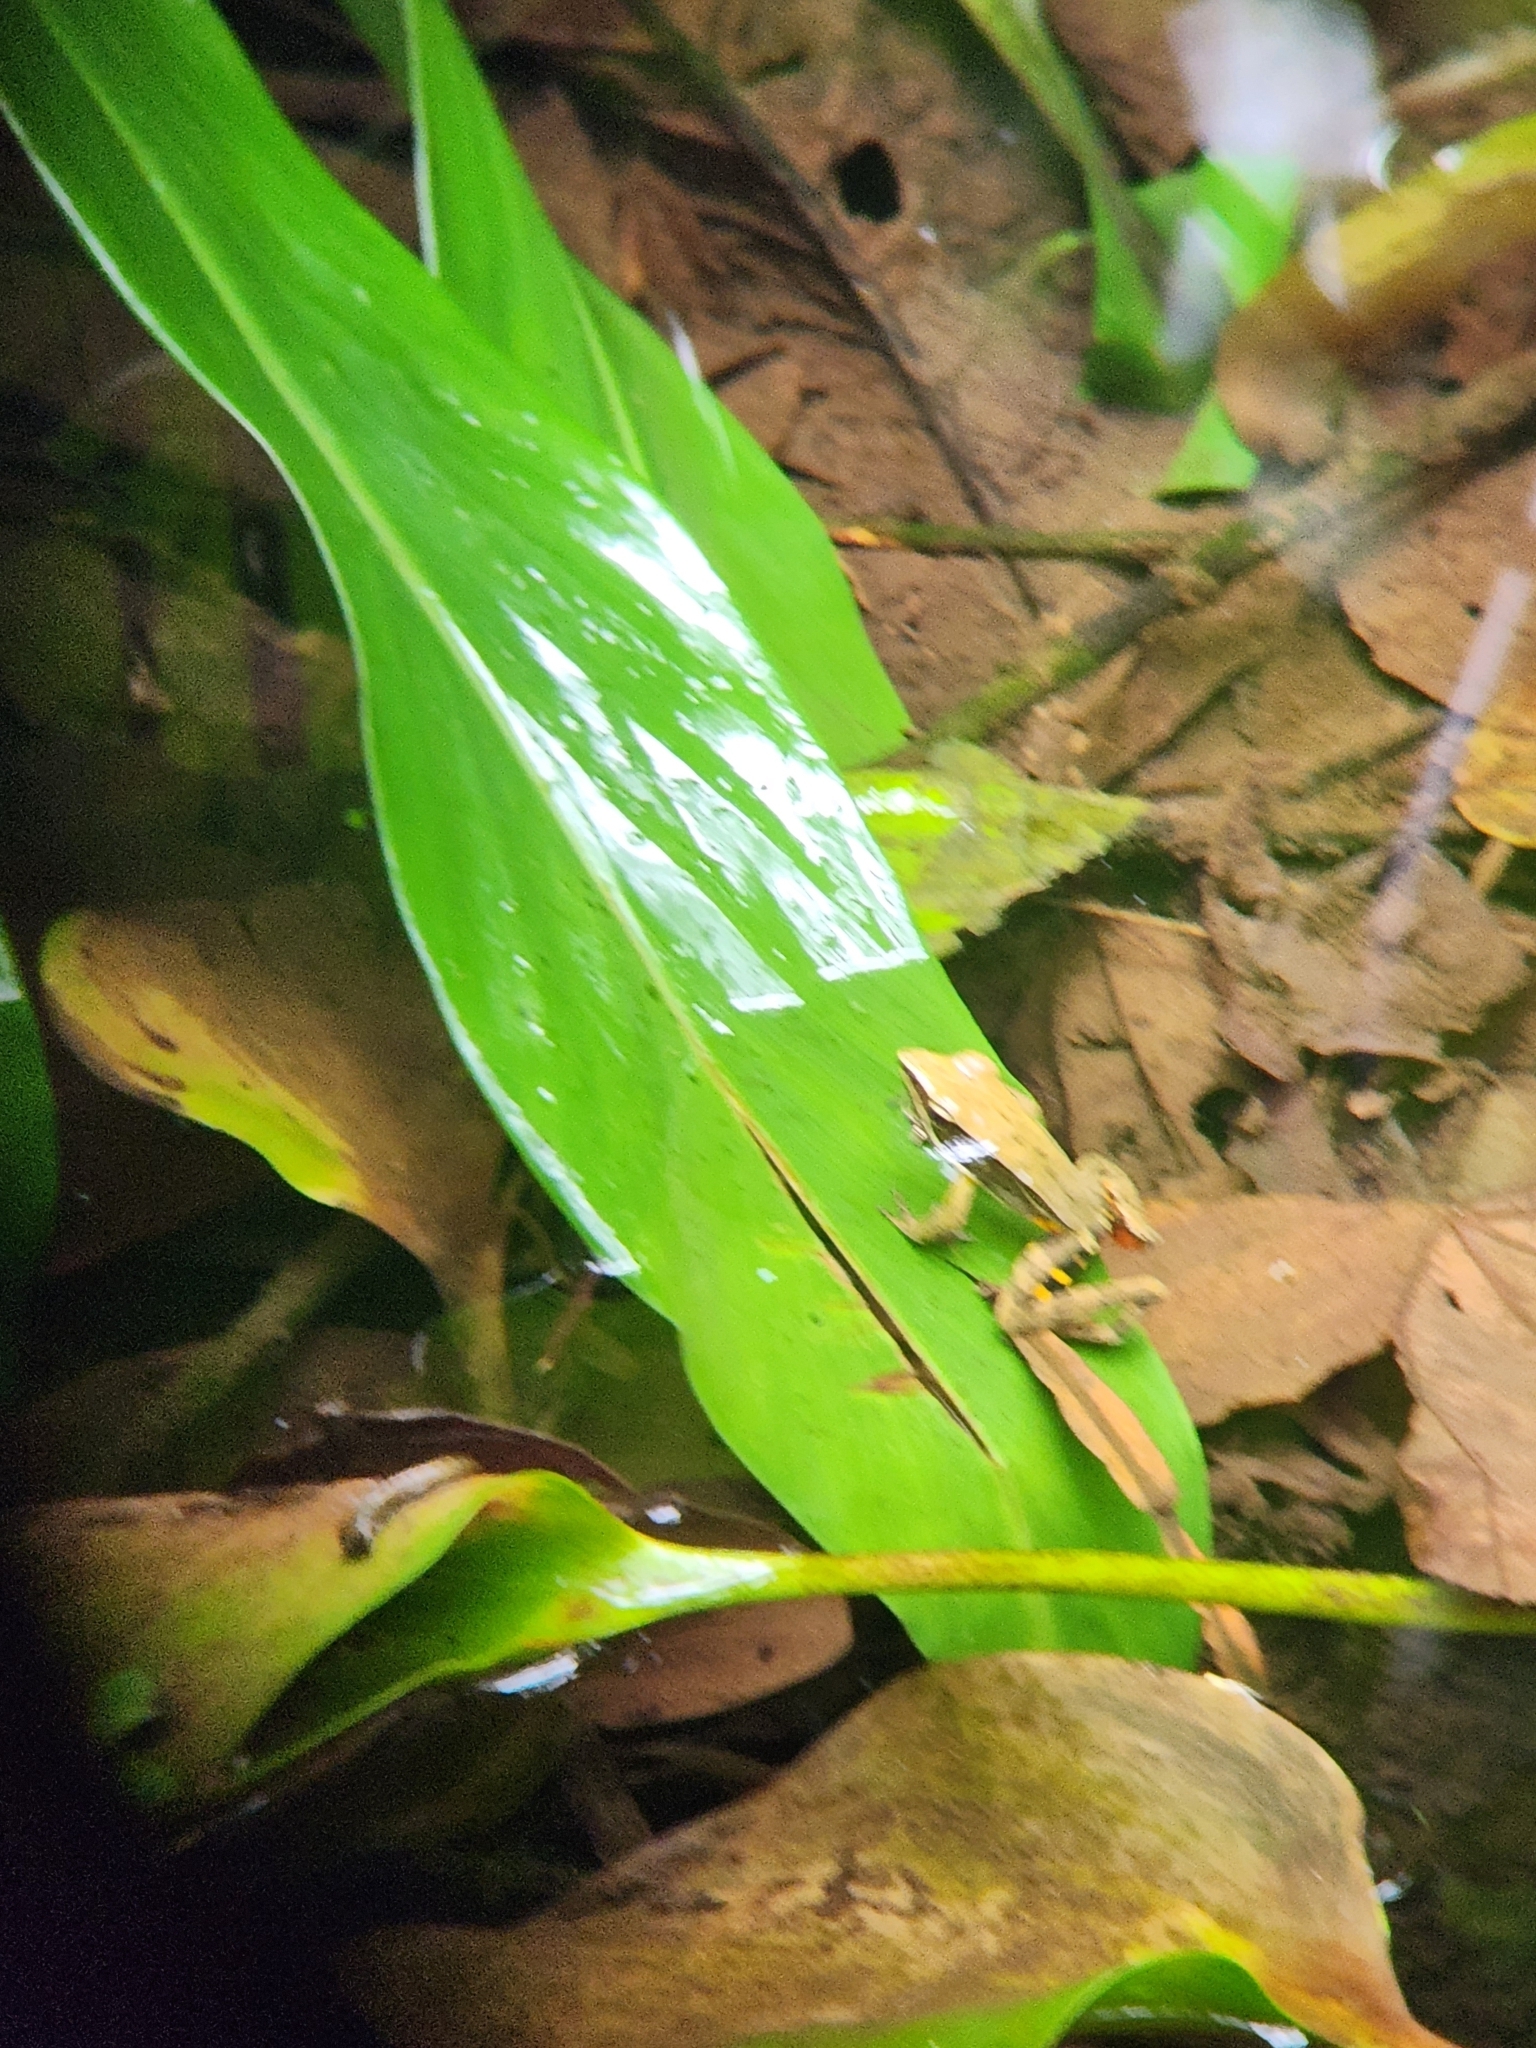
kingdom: Animalia
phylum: Chordata
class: Amphibia
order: Anura
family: Ranidae
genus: Lithobates
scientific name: Lithobates warszewitschii
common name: Warszewitsch's frog
